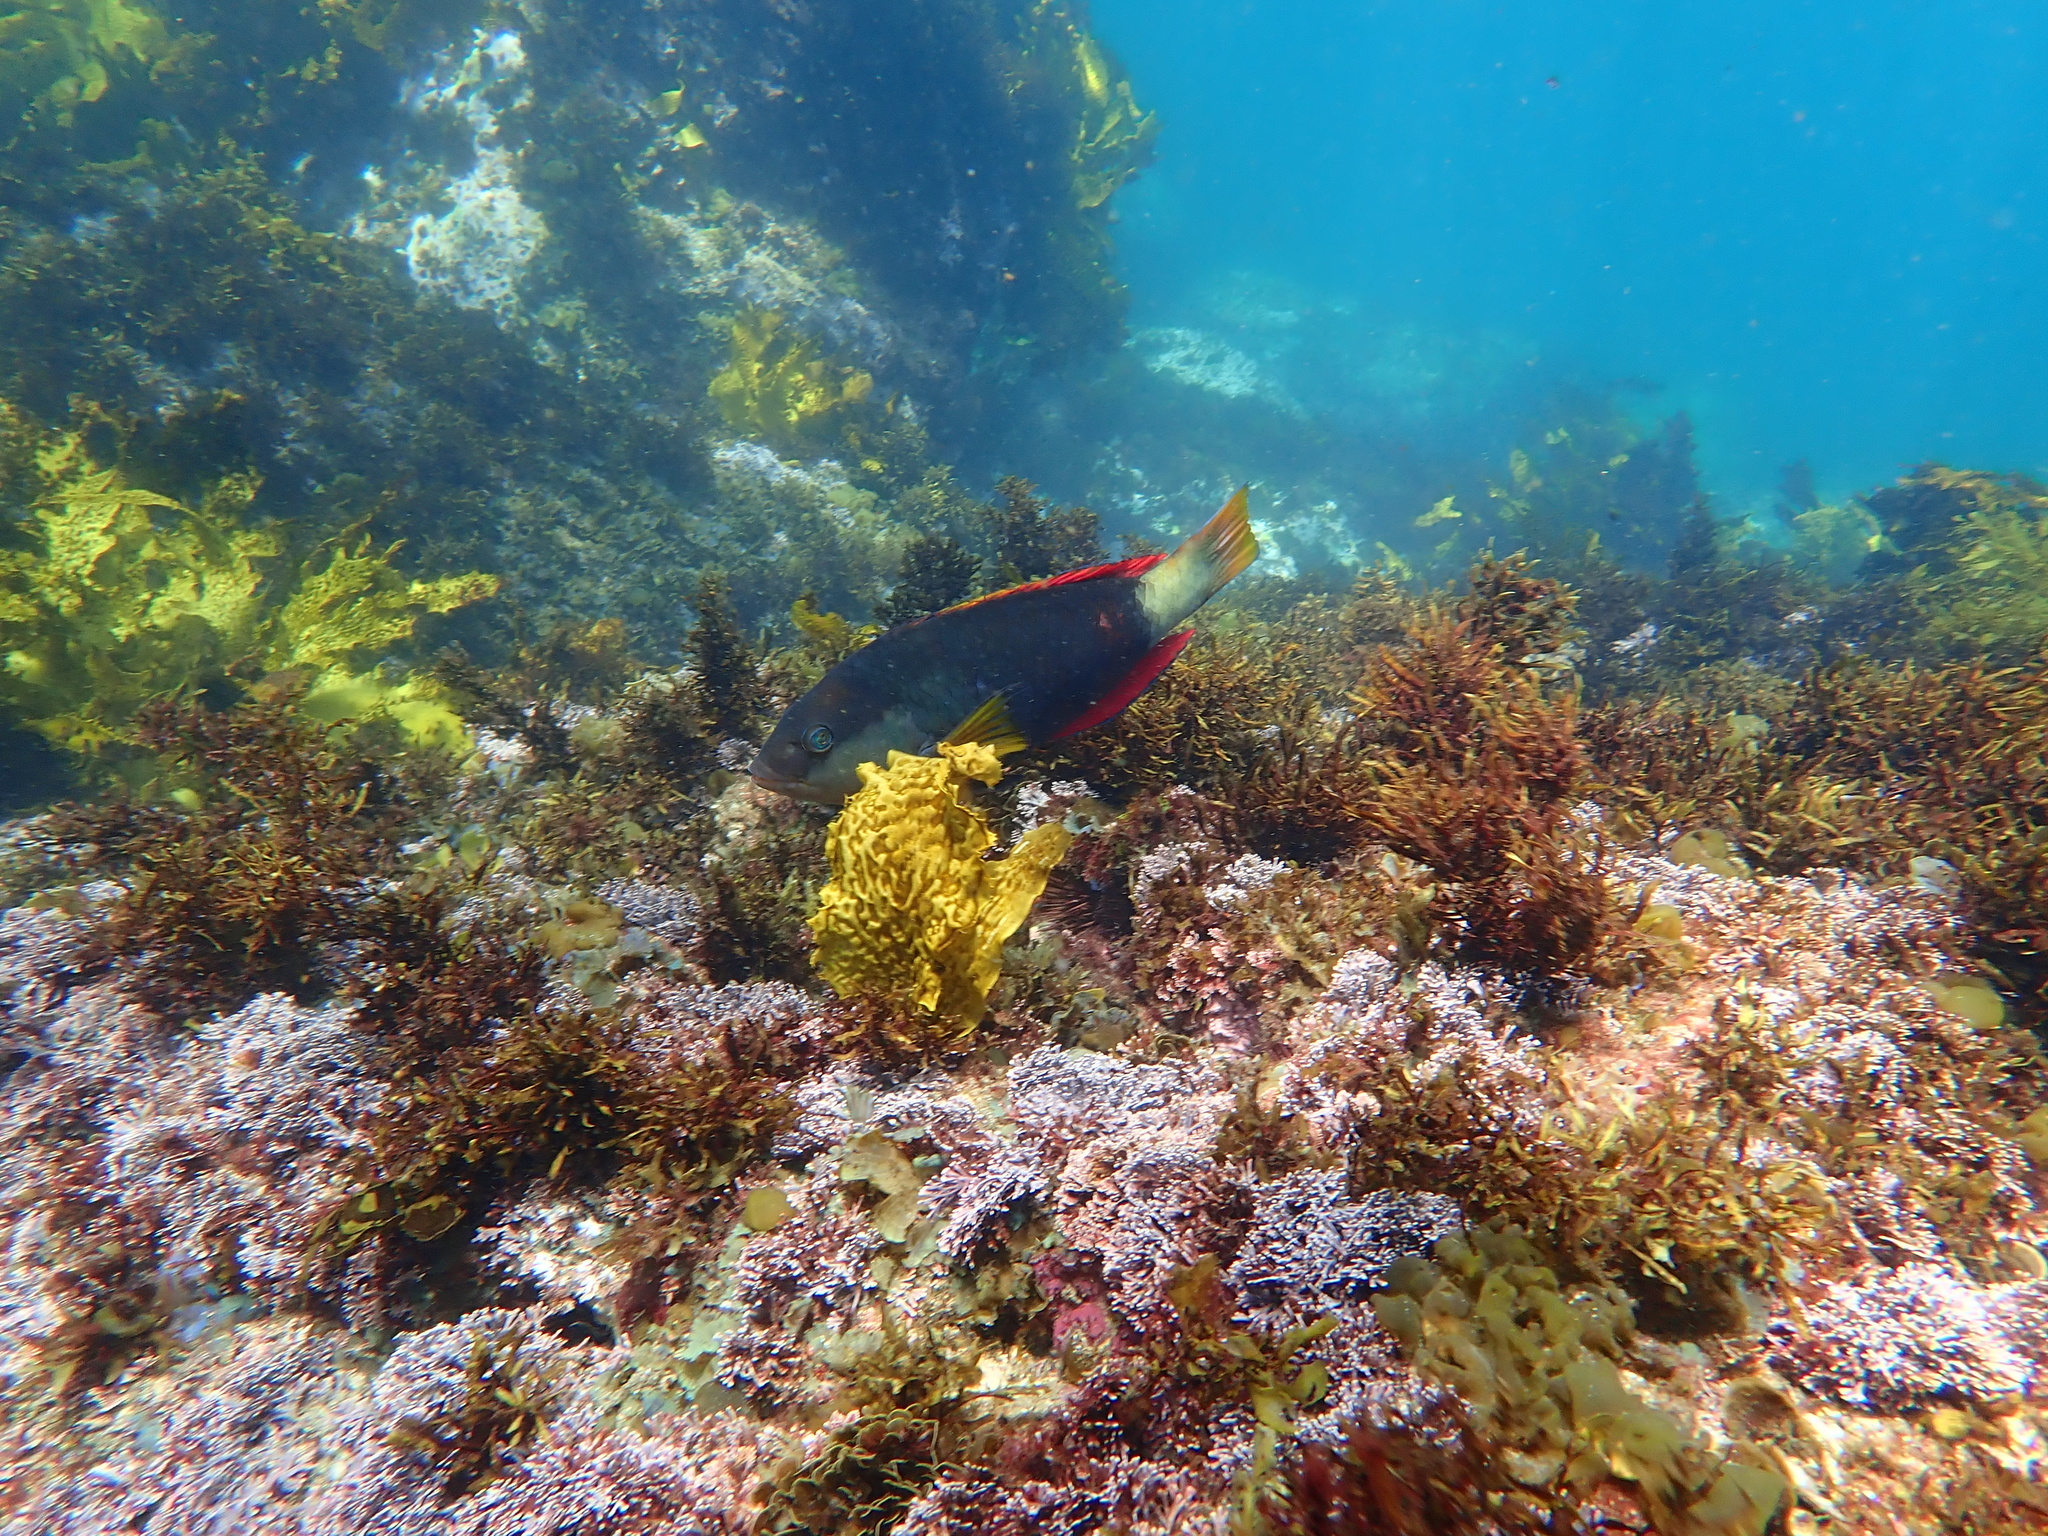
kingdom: Animalia
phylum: Chordata
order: Perciformes
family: Labridae
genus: Notolabrus
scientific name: Notolabrus gymnogenis
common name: Crimson banded wrasse
